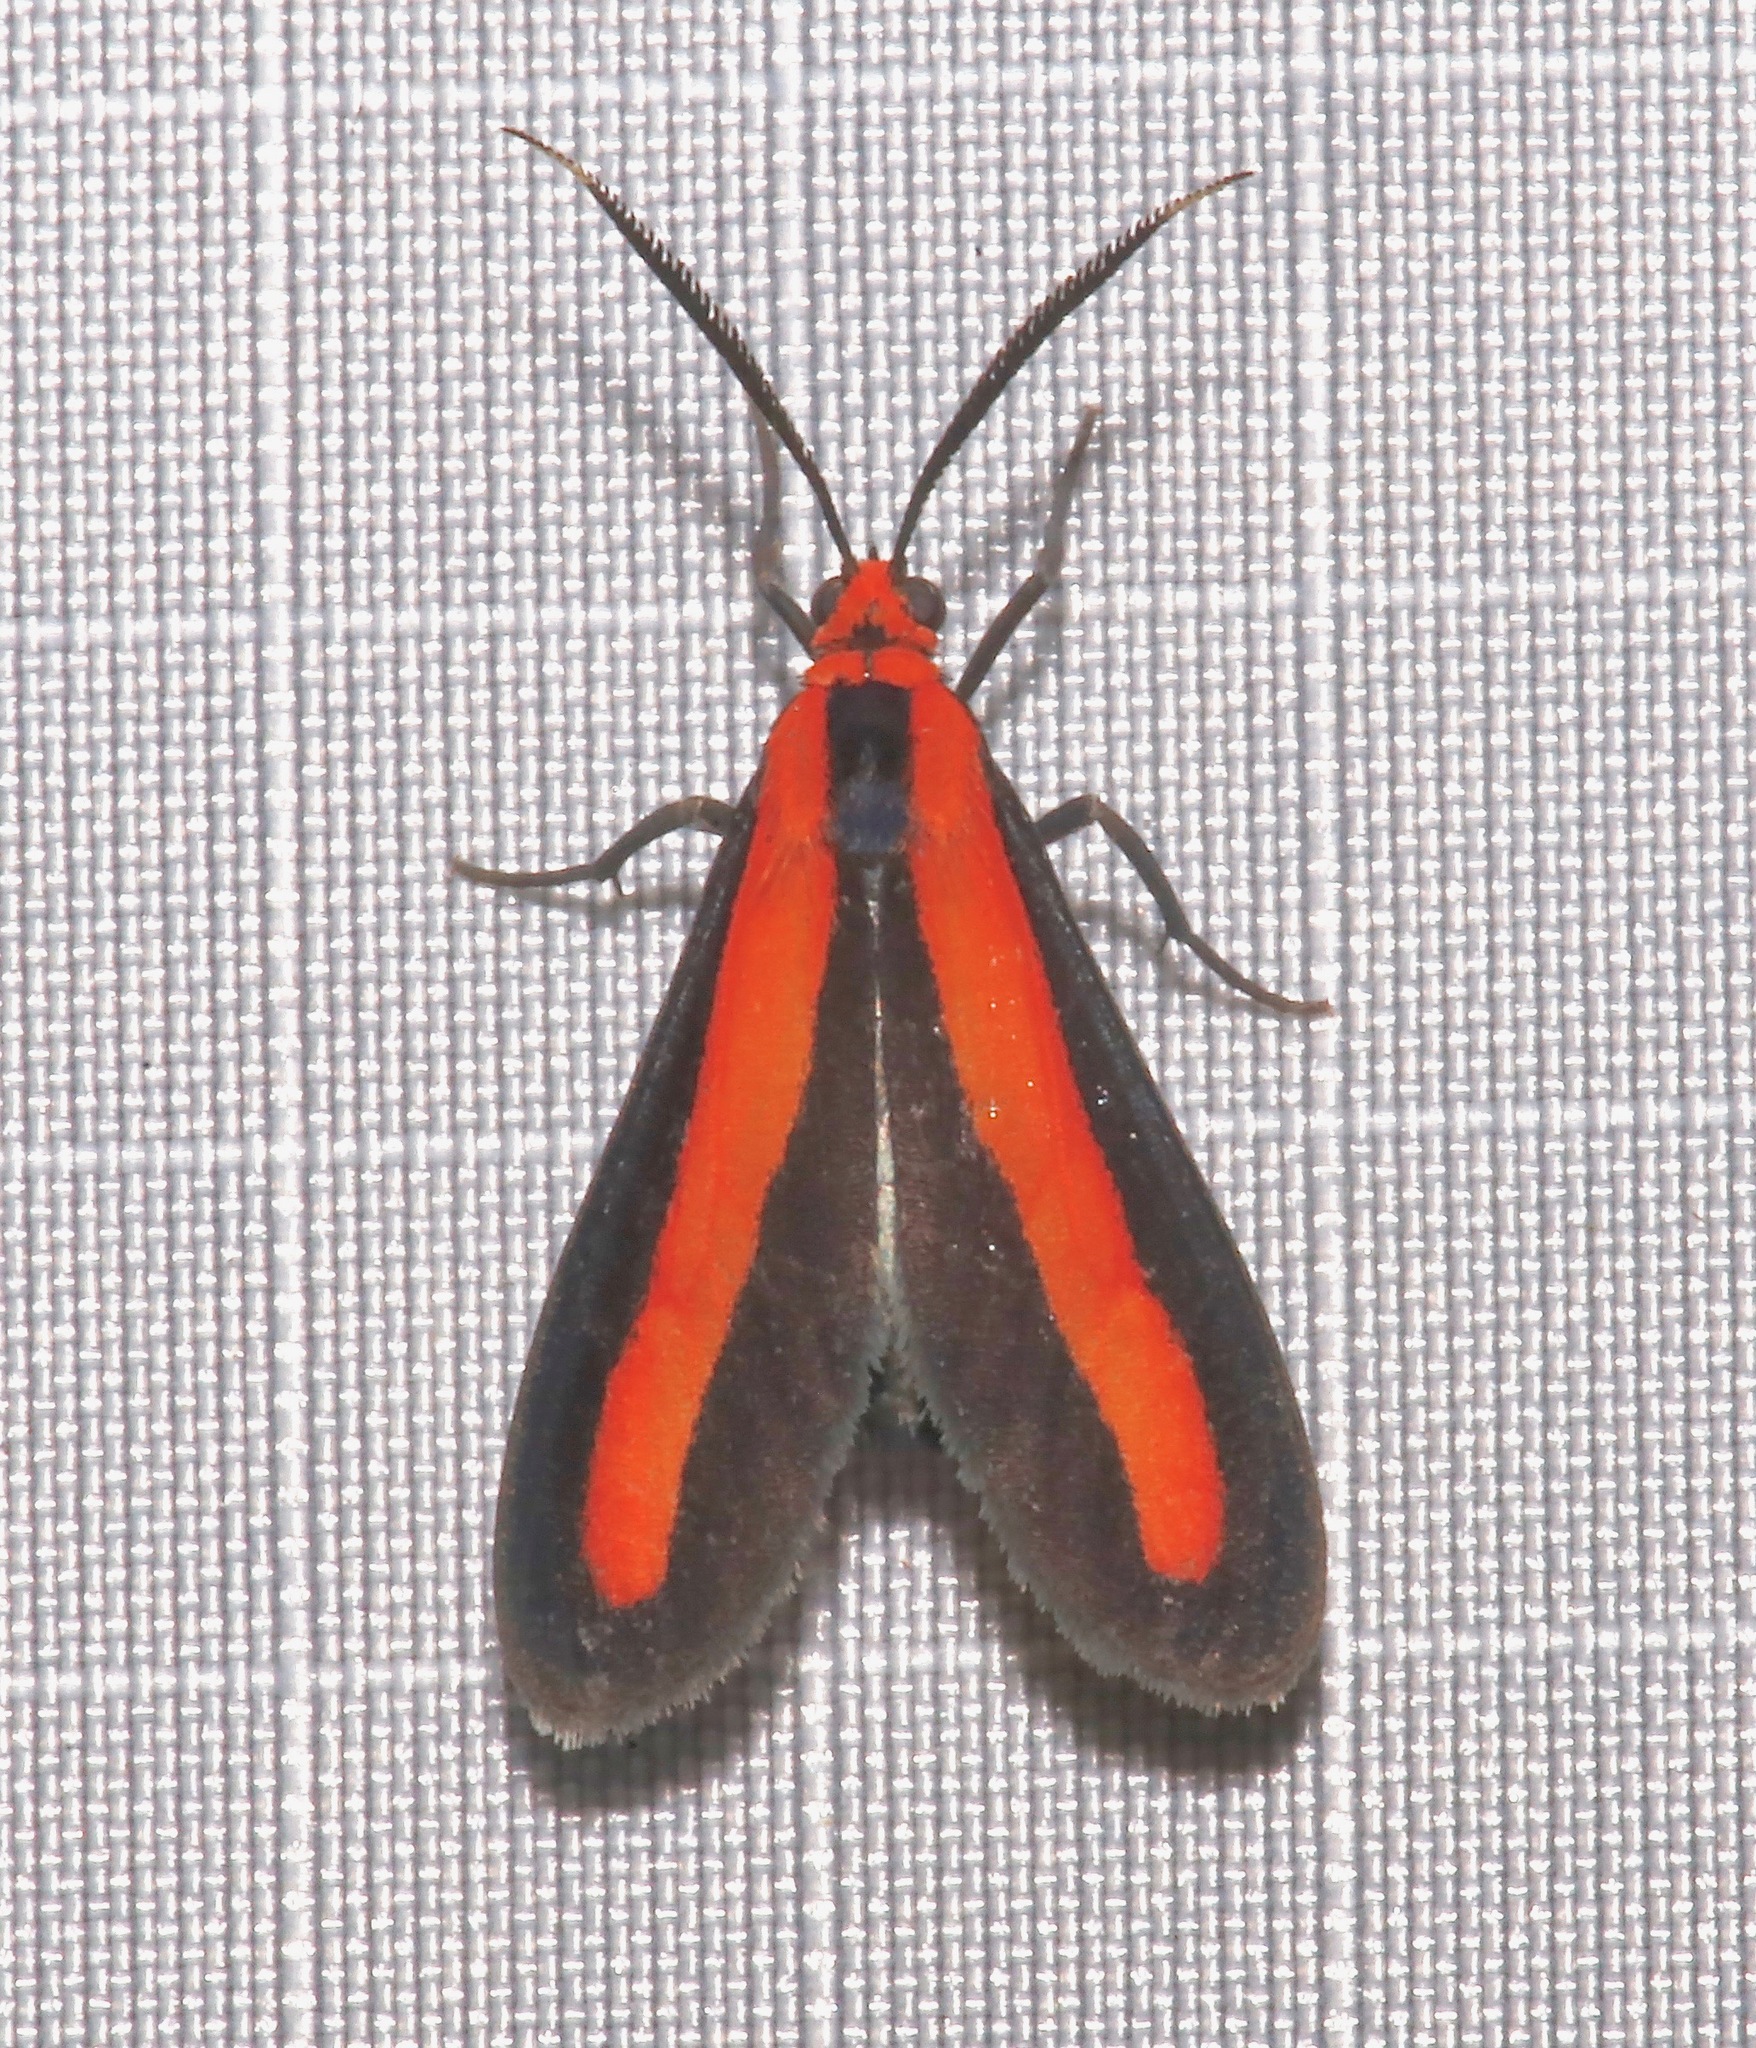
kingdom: Animalia
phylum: Arthropoda
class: Insecta
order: Lepidoptera
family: Erebidae
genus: Tipulodes
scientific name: Tipulodes rubriceps
